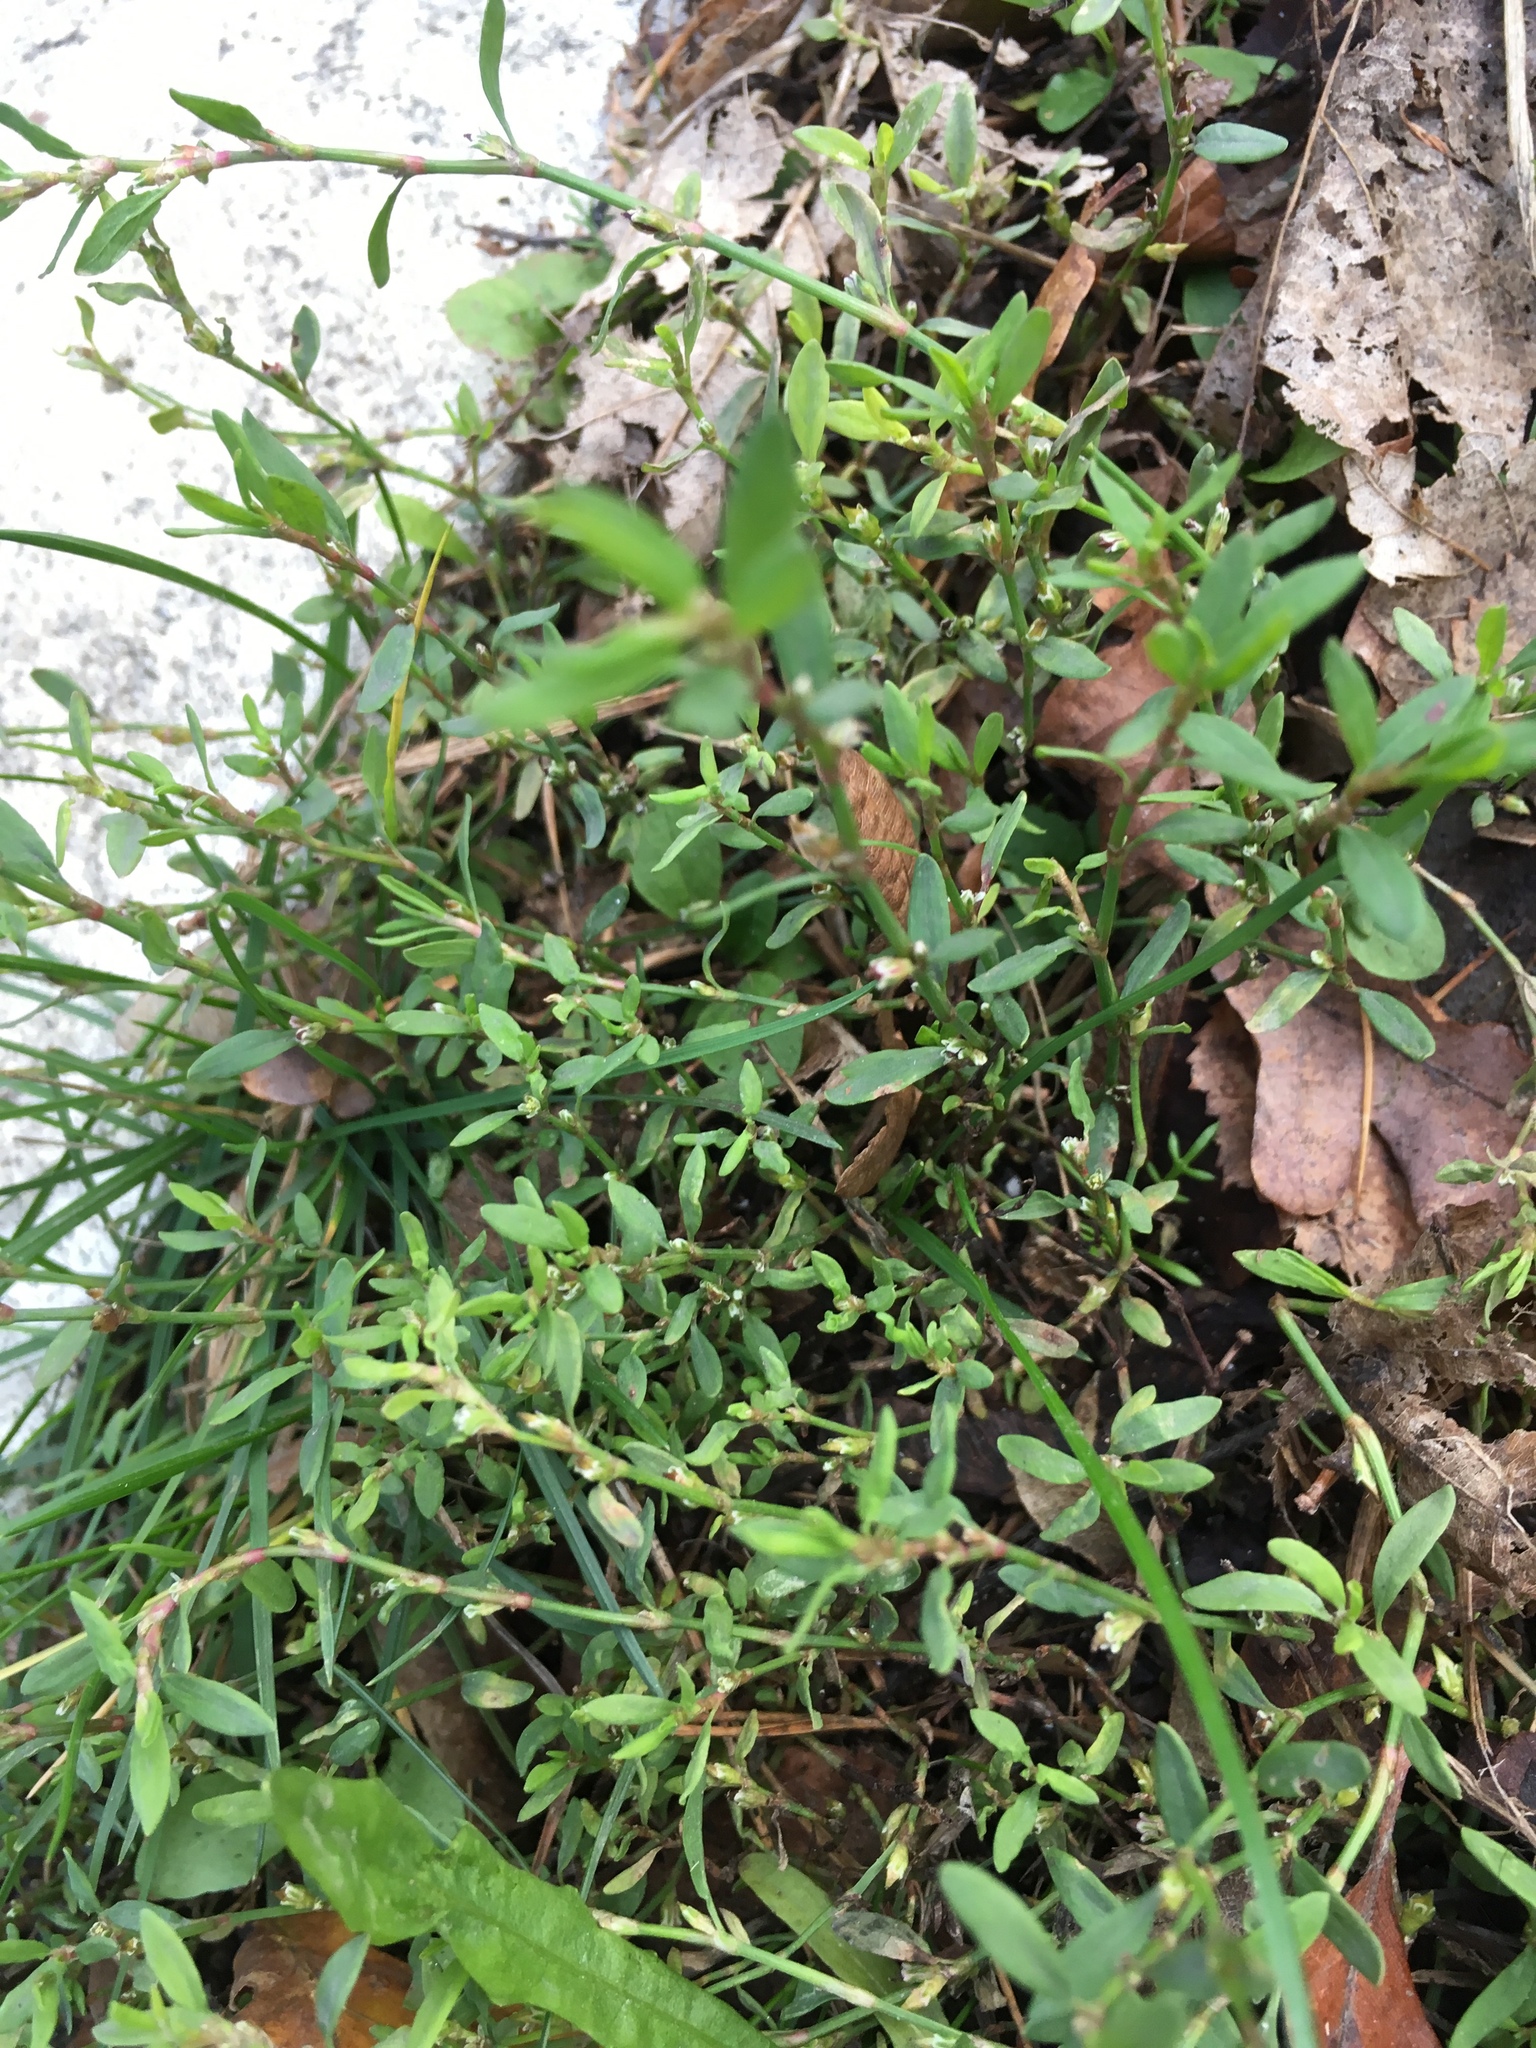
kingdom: Plantae
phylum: Tracheophyta
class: Magnoliopsida
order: Caryophyllales
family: Polygonaceae
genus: Polygonum
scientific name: Polygonum aviculare
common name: Prostrate knotweed
